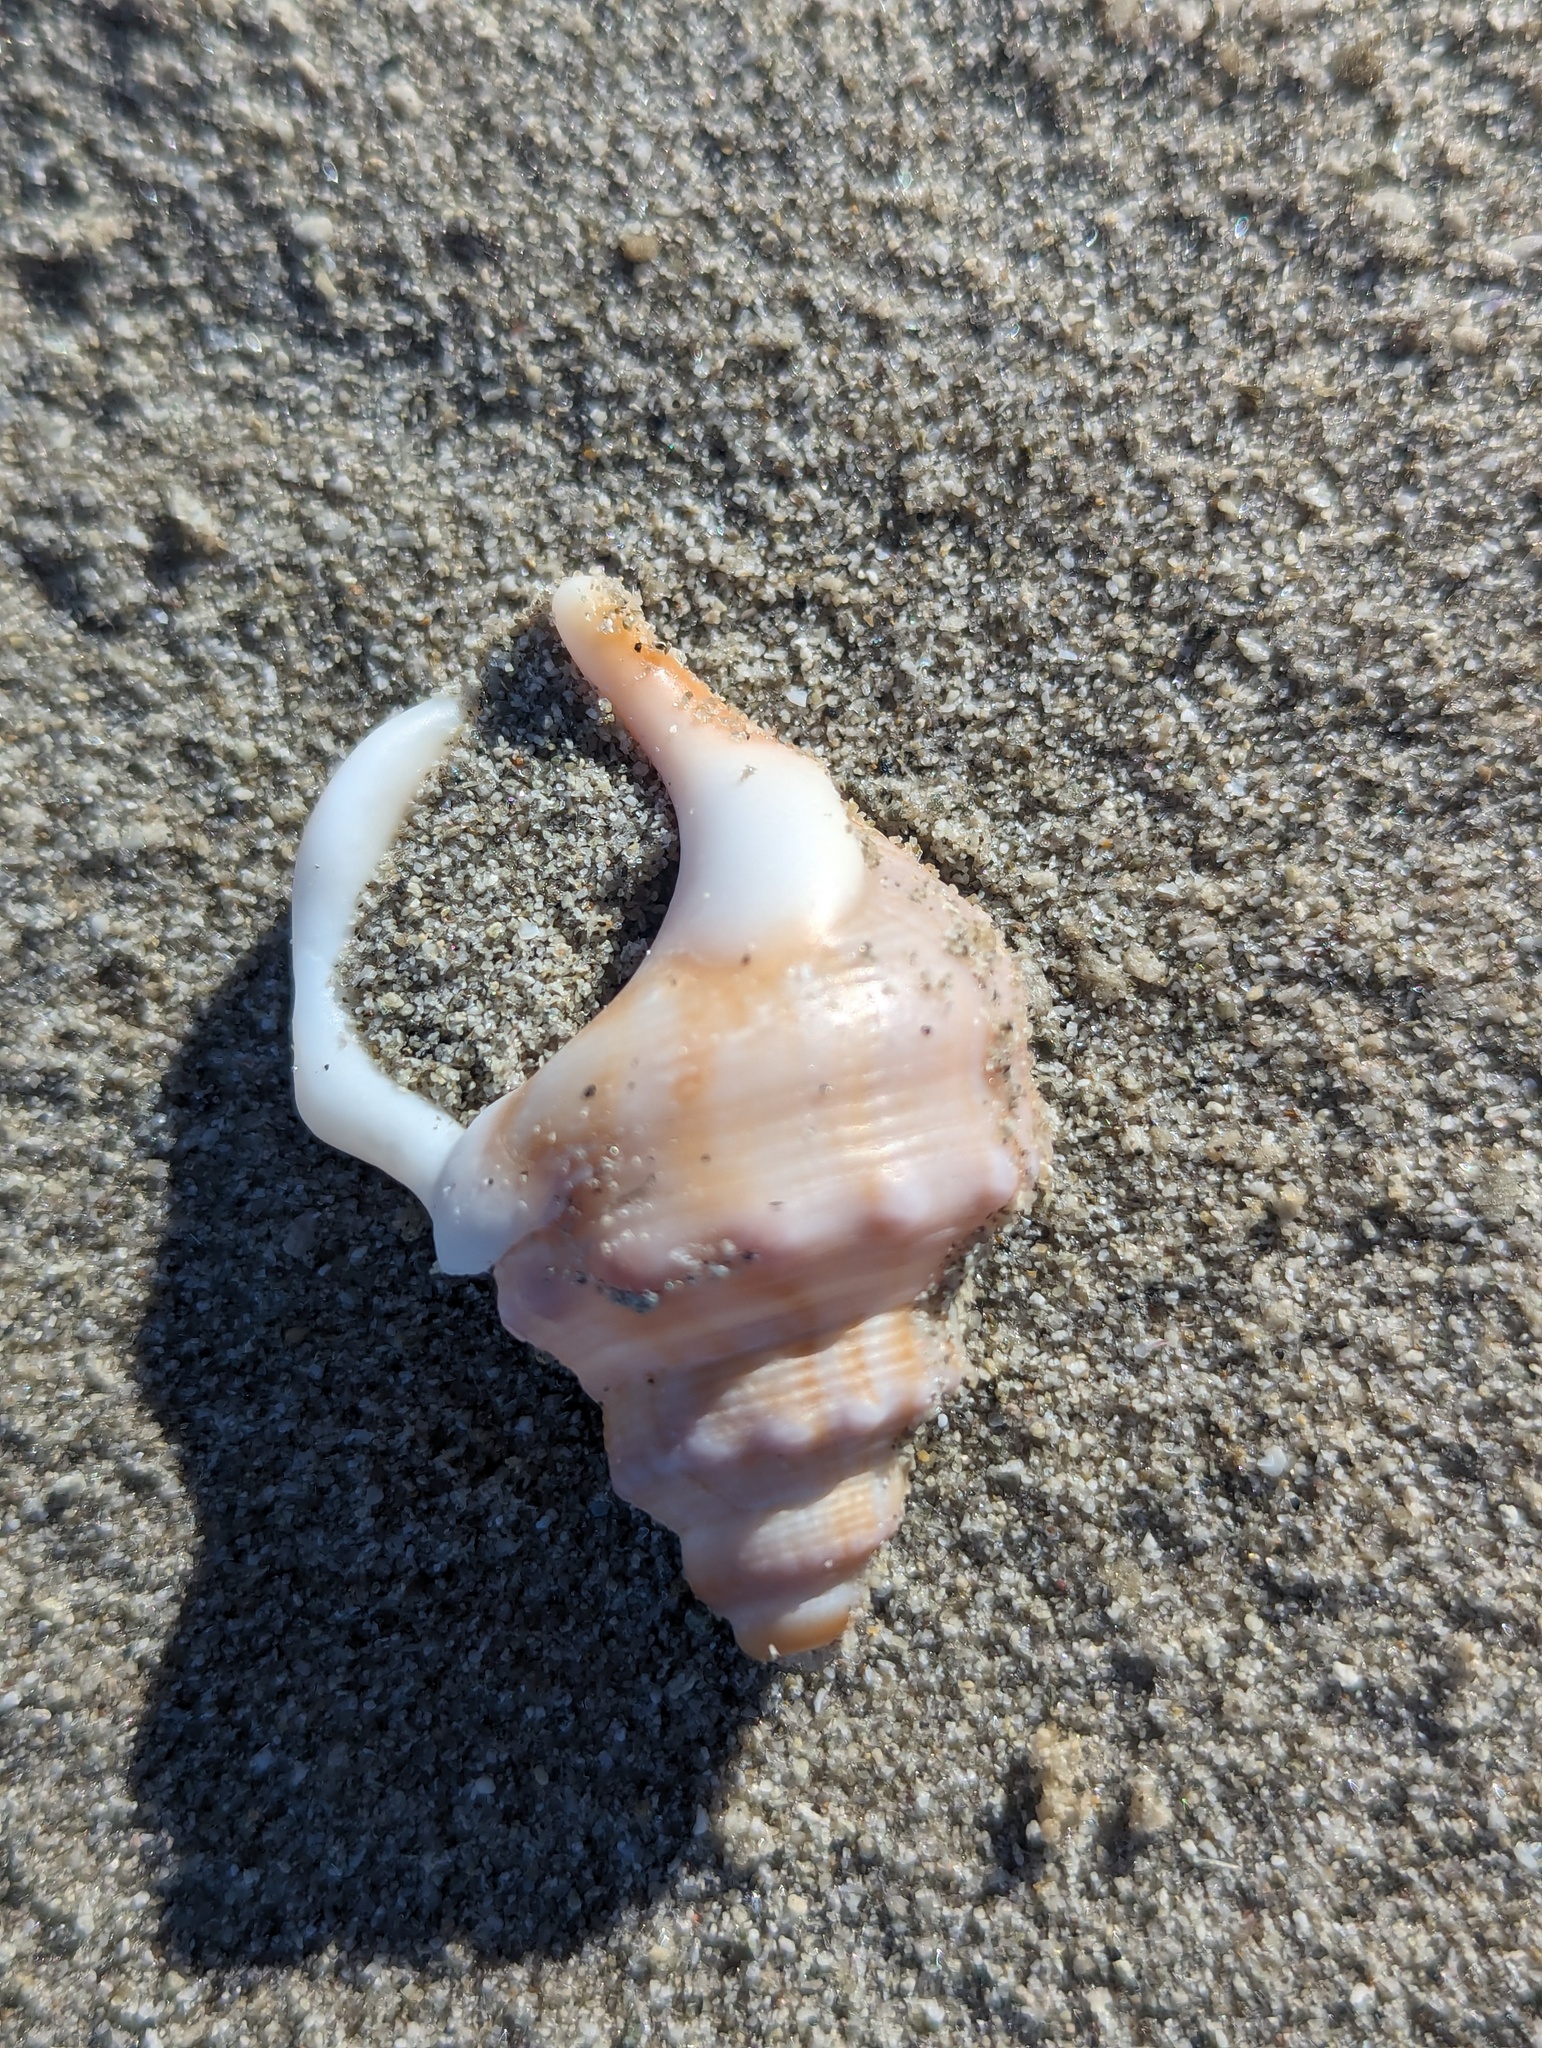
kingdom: Animalia
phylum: Mollusca
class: Gastropoda
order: Littorinimorpha
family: Struthiolariidae
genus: Struthiolaria
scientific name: Struthiolaria papulosa
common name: Large ostrich foot
